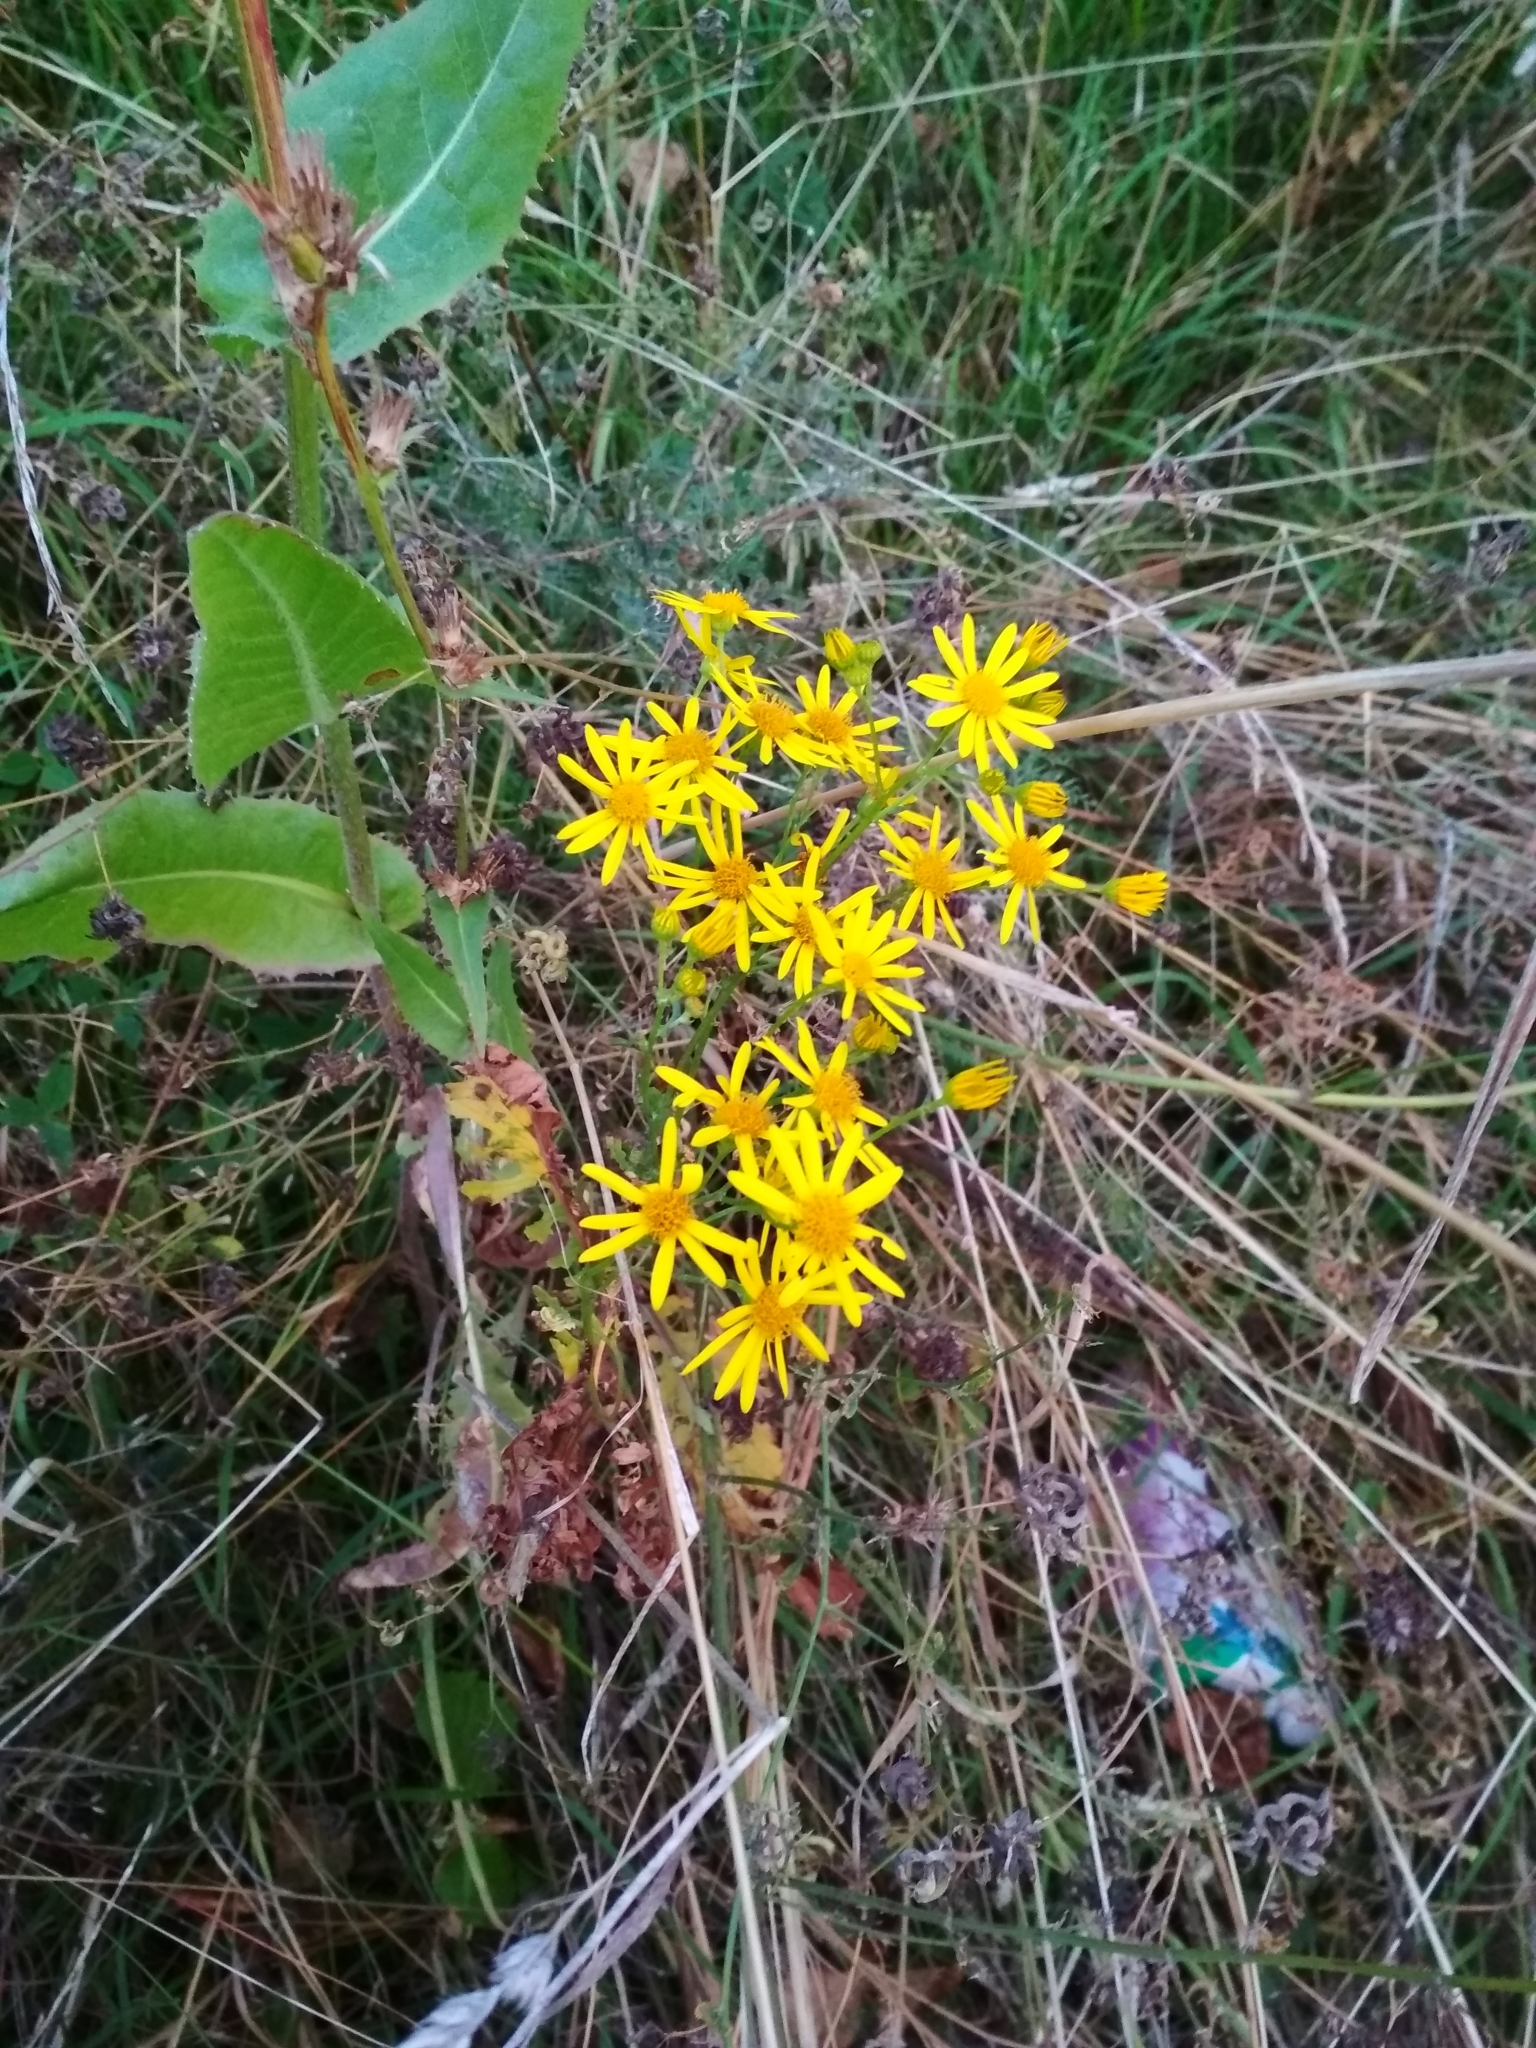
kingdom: Plantae
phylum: Tracheophyta
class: Magnoliopsida
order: Asterales
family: Asteraceae
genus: Jacobaea
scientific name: Jacobaea vulgaris
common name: Stinking willie
